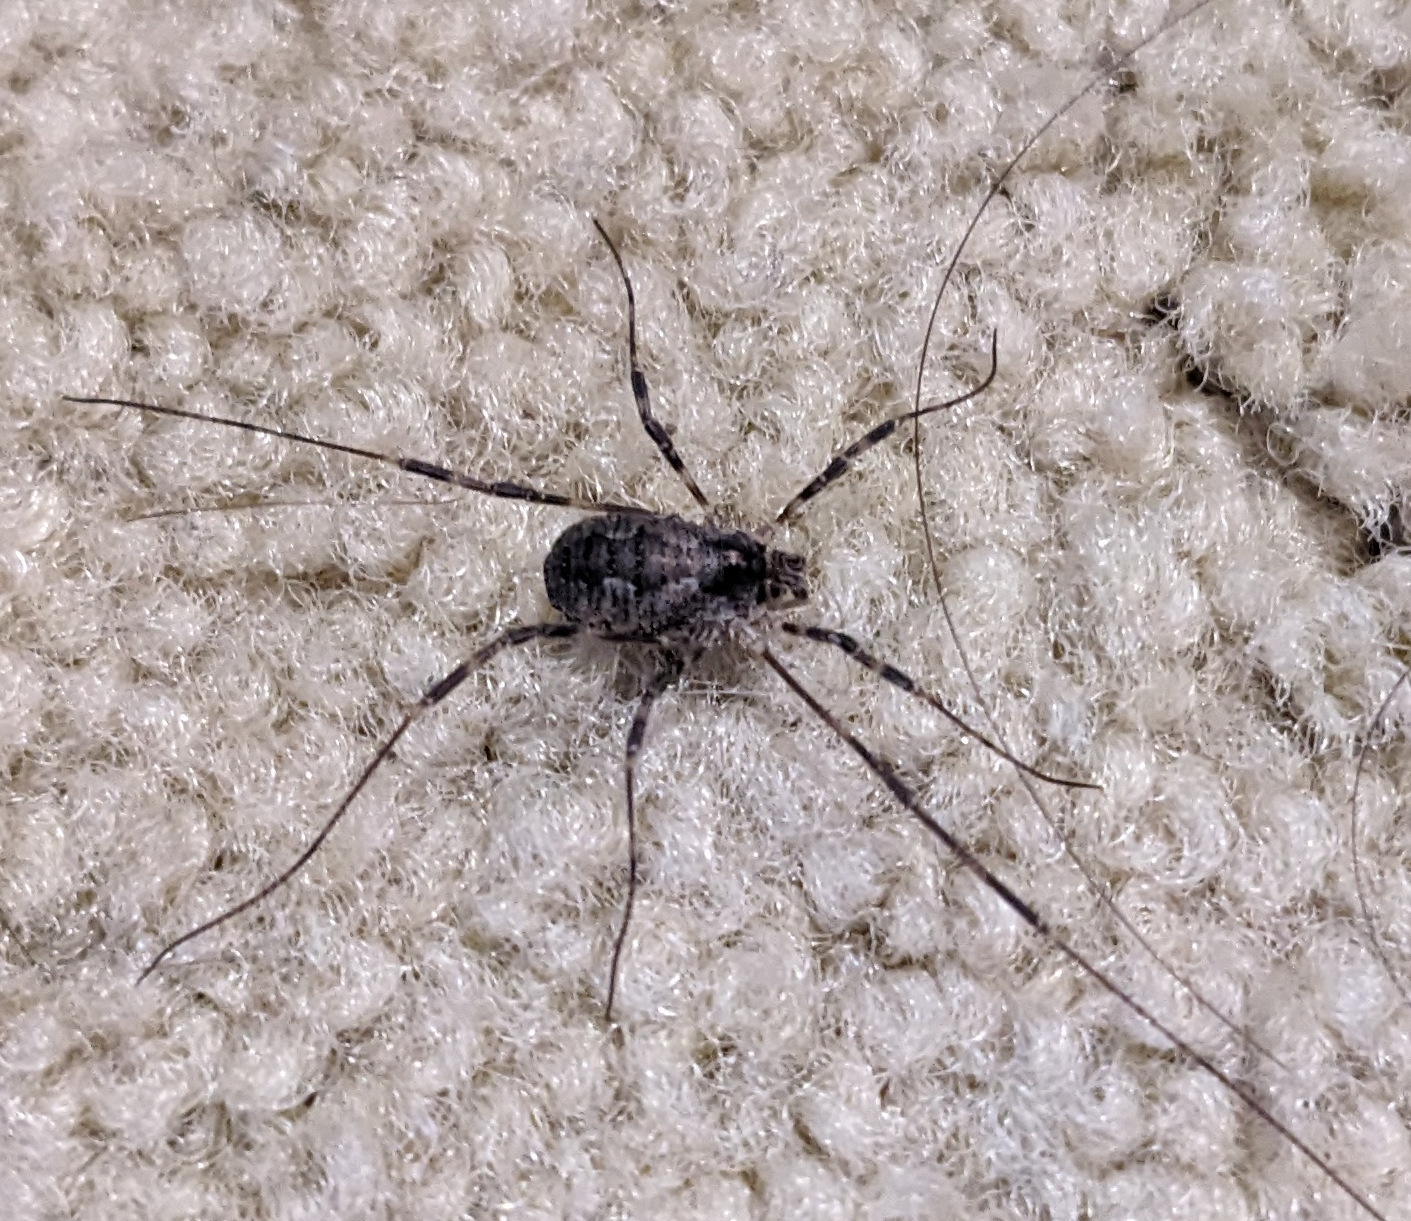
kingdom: Animalia
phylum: Arthropoda
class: Arachnida
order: Opiliones
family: Phalangiidae
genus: Odiellus
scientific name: Odiellus pictus
